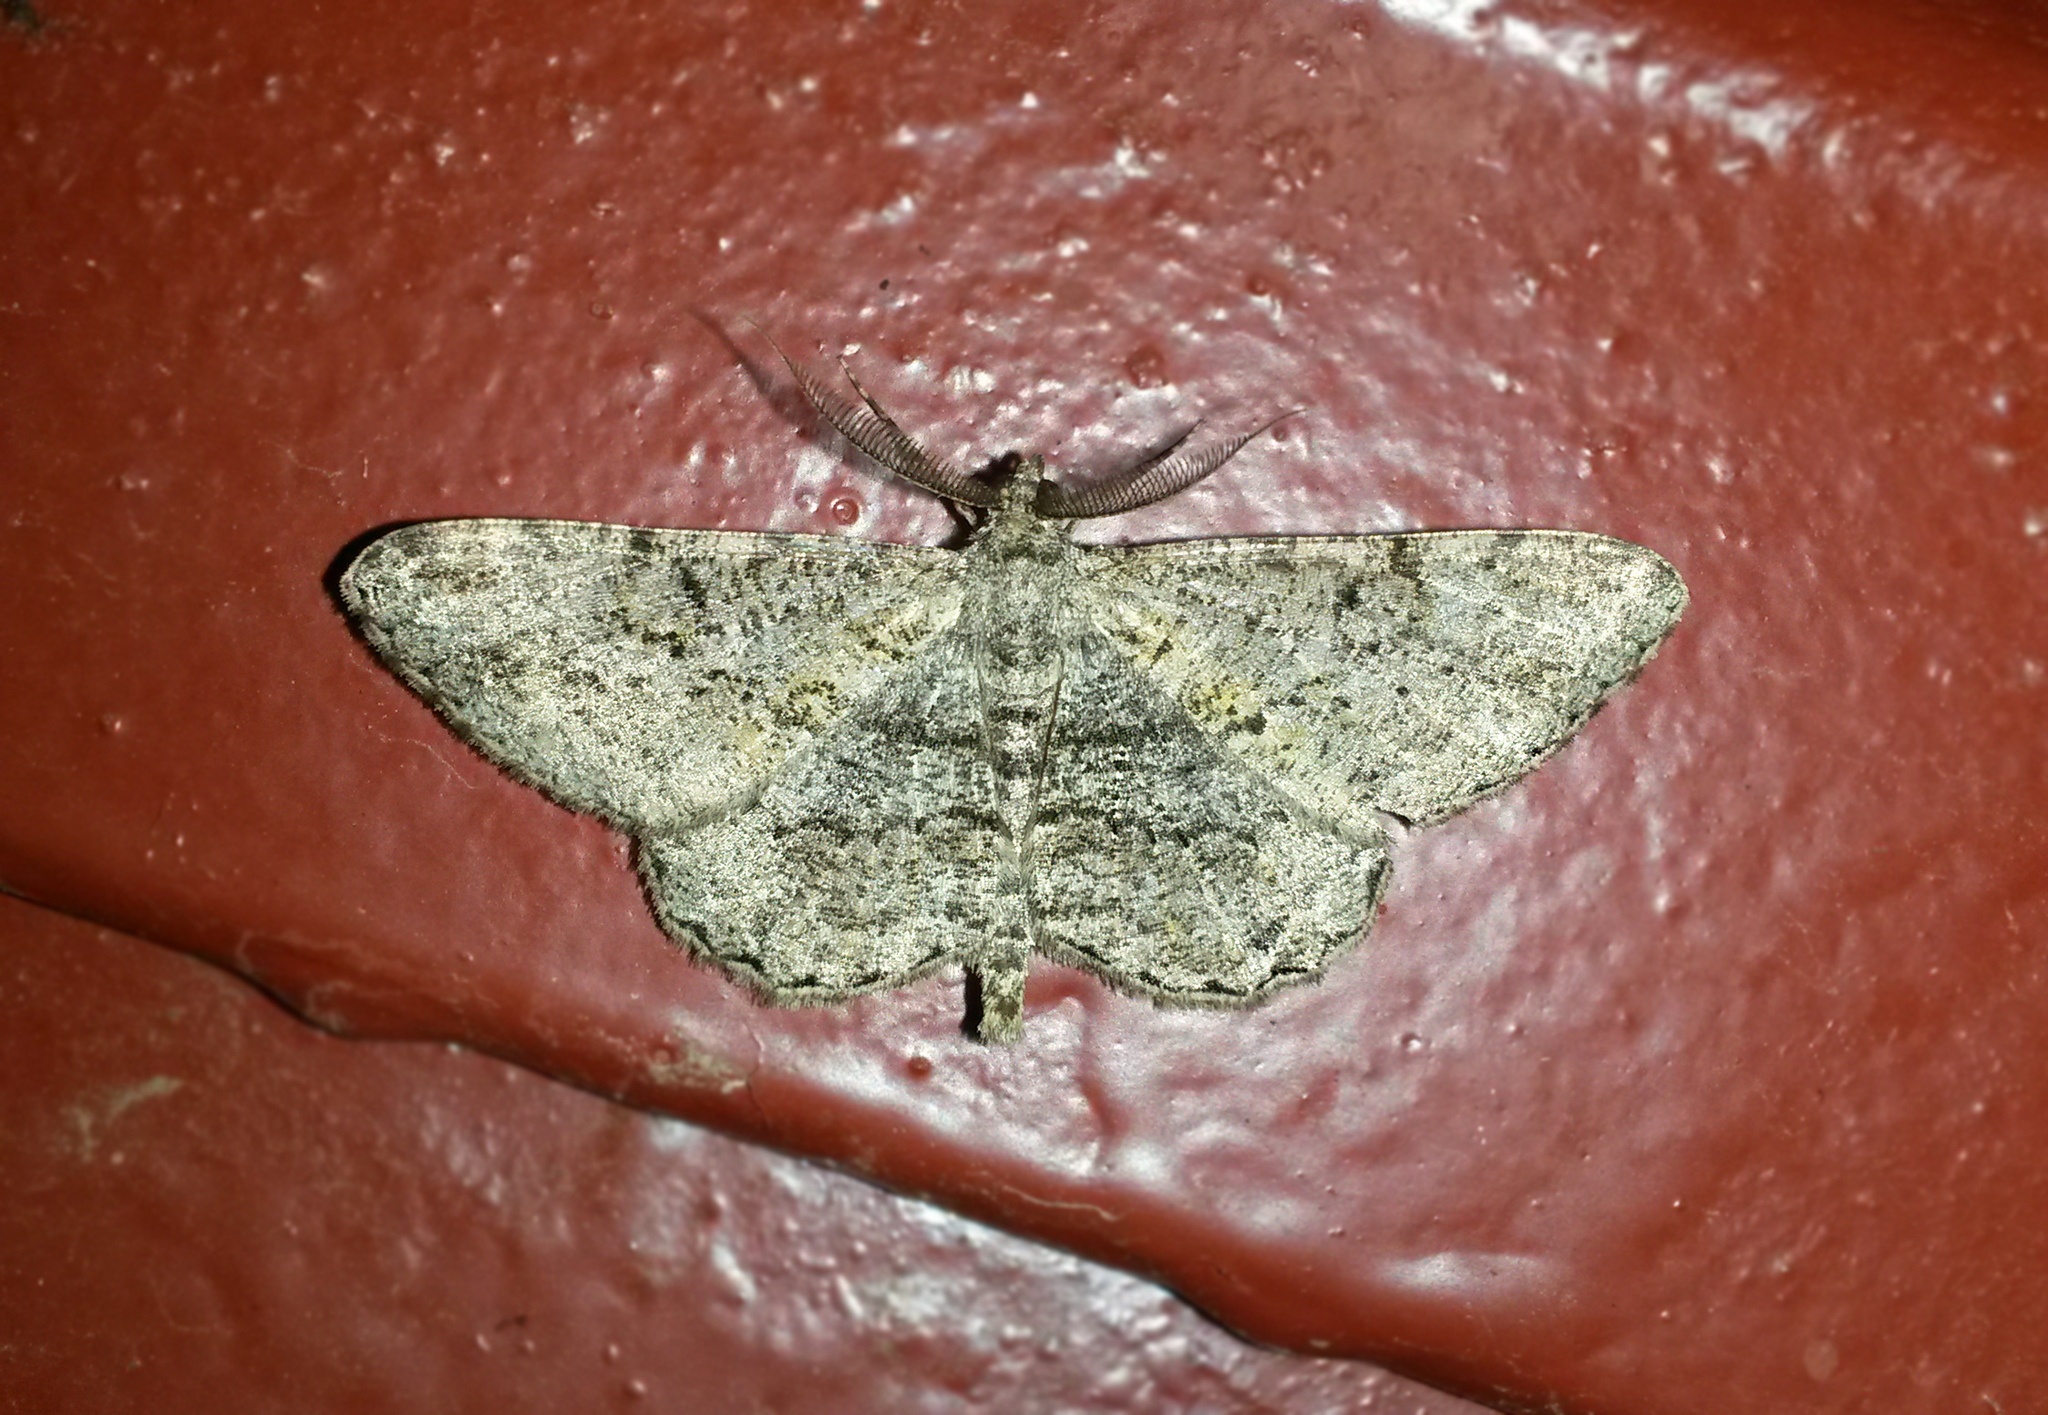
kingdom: Animalia
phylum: Arthropoda
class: Insecta
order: Lepidoptera
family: Geometridae
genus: Peribatodes
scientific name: Peribatodes rhomboidaria
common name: Willow beauty
